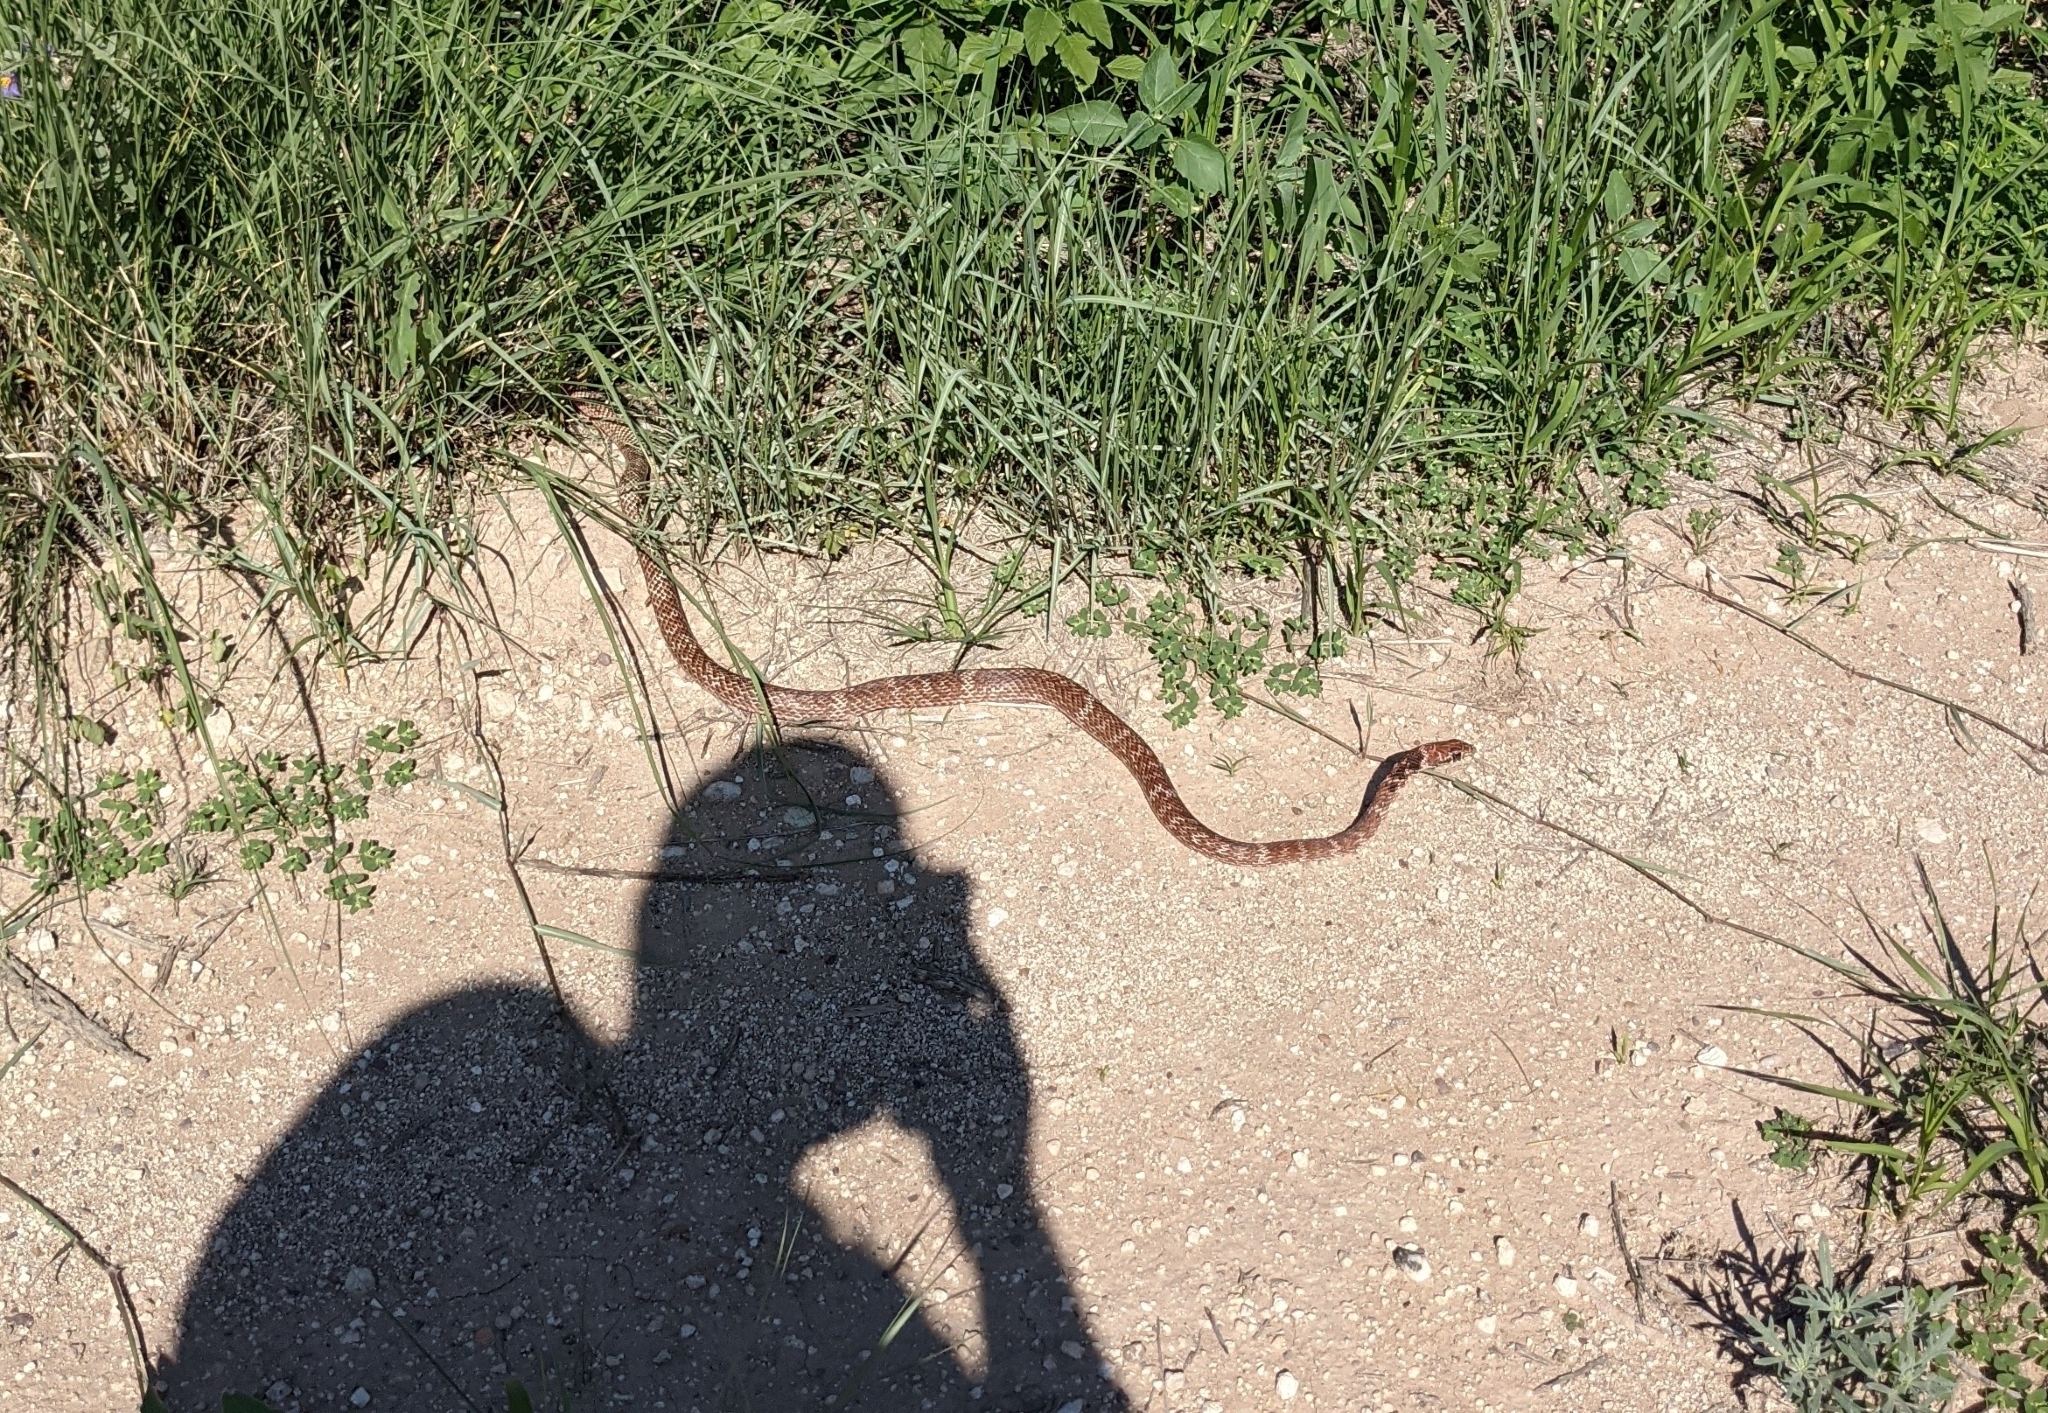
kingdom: Animalia
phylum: Chordata
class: Squamata
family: Colubridae
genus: Masticophis
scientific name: Masticophis flagellum
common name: Coachwhip
